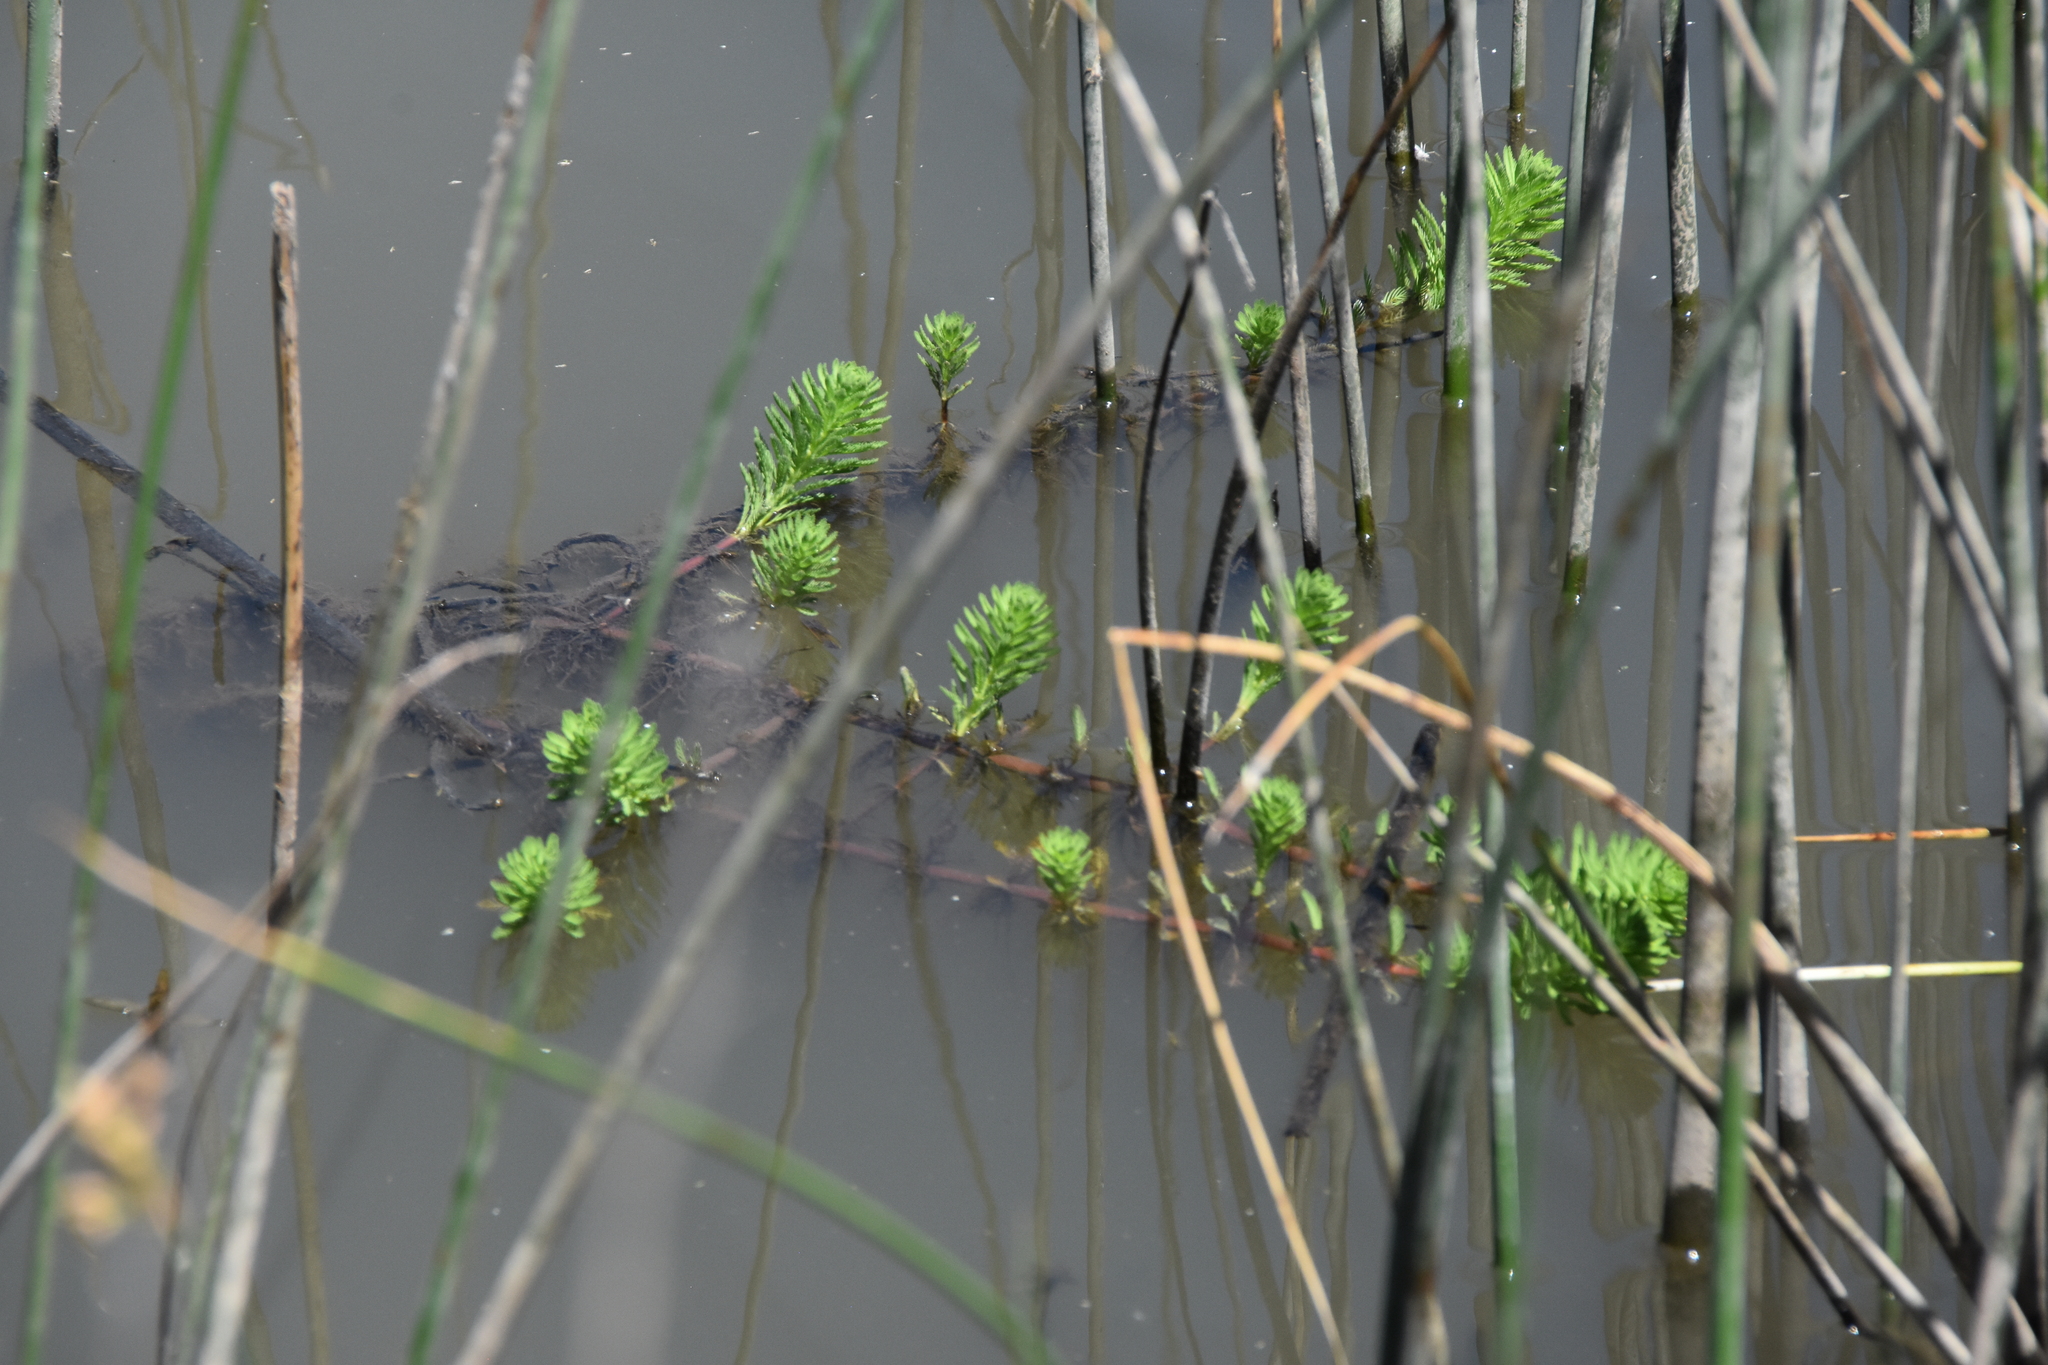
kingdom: Plantae
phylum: Tracheophyta
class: Magnoliopsida
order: Saxifragales
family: Haloragaceae
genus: Myriophyllum
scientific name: Myriophyllum aquaticum
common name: Parrot's feather
